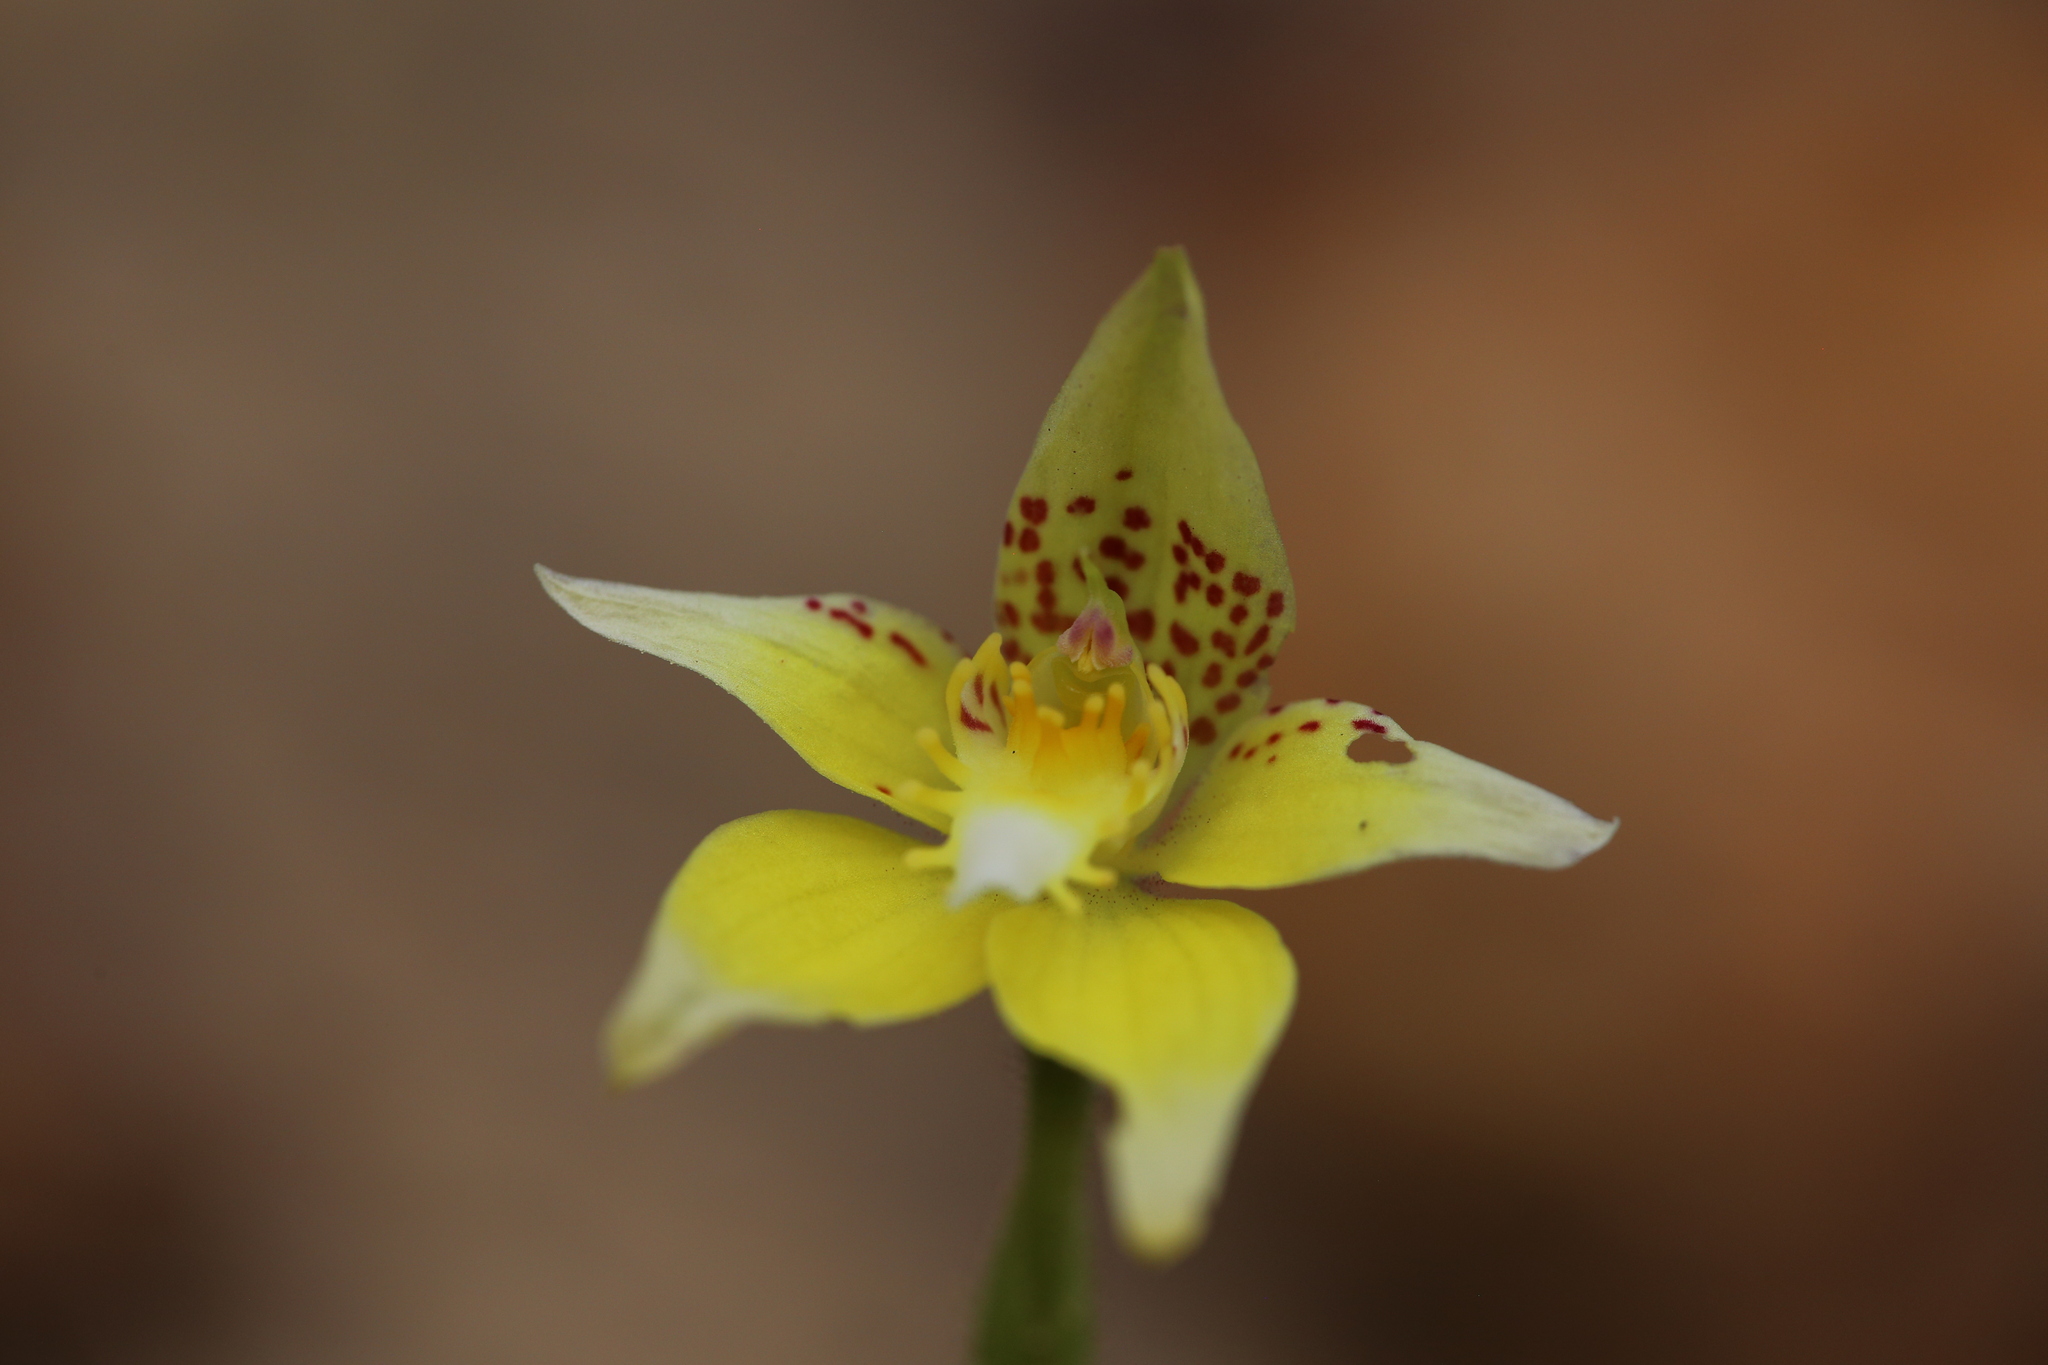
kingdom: Plantae
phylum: Tracheophyta
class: Liliopsida
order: Asparagales
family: Orchidaceae
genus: Caladenia
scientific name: Caladenia flava
